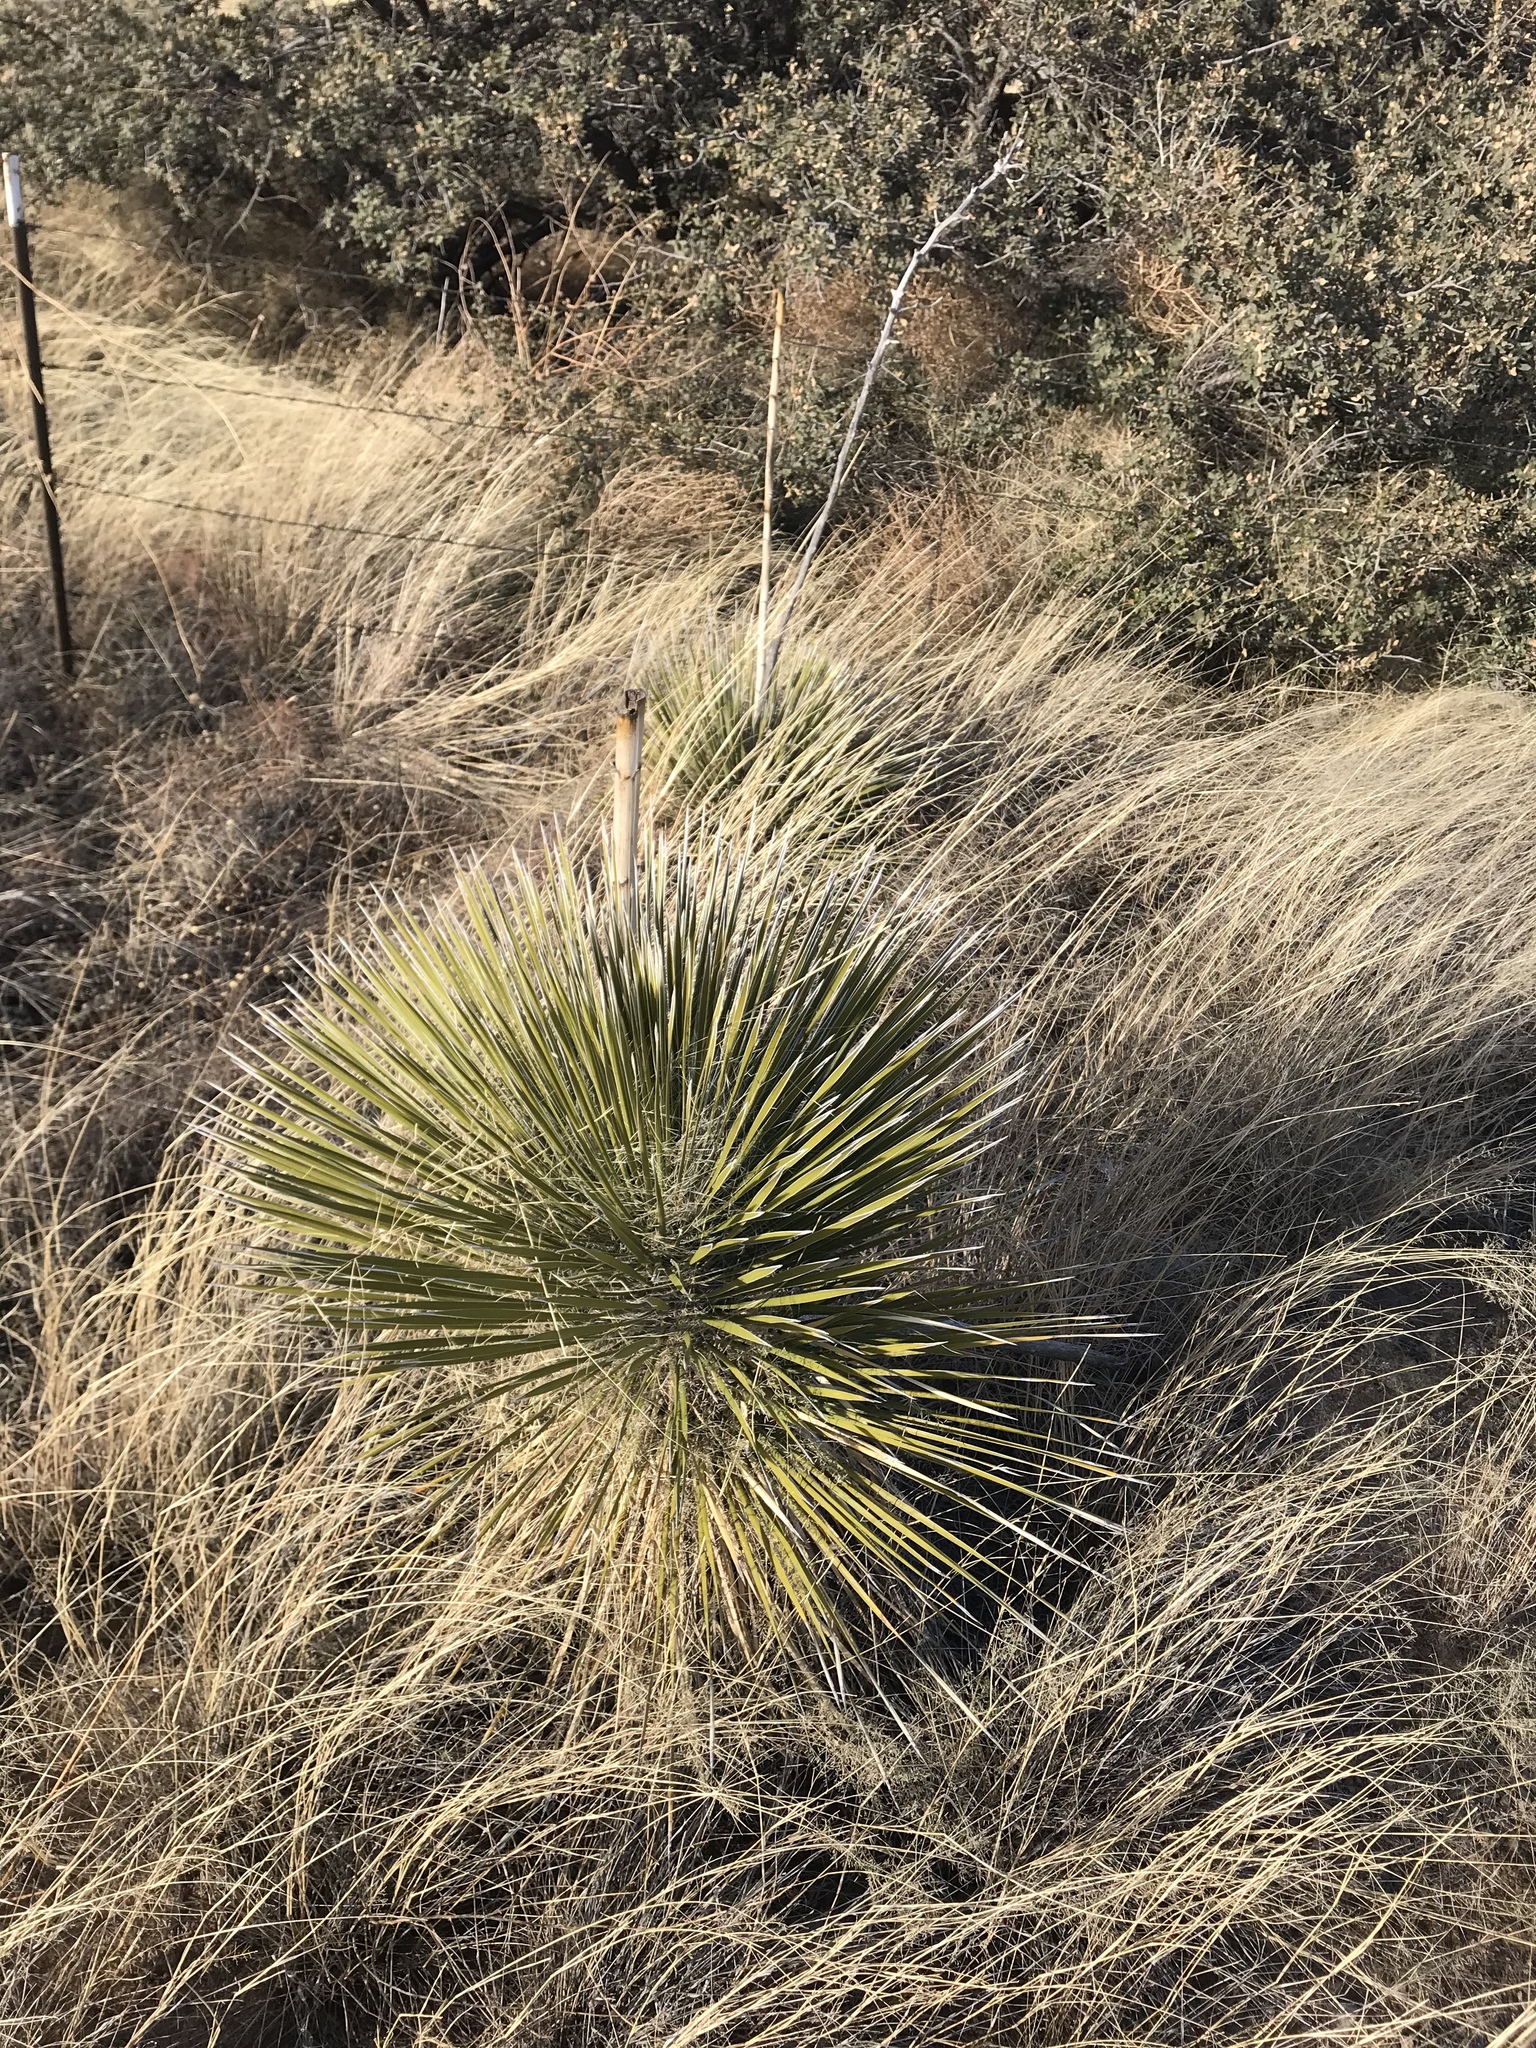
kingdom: Plantae
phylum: Tracheophyta
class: Liliopsida
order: Asparagales
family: Asparagaceae
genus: Yucca
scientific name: Yucca elata
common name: Palmella
